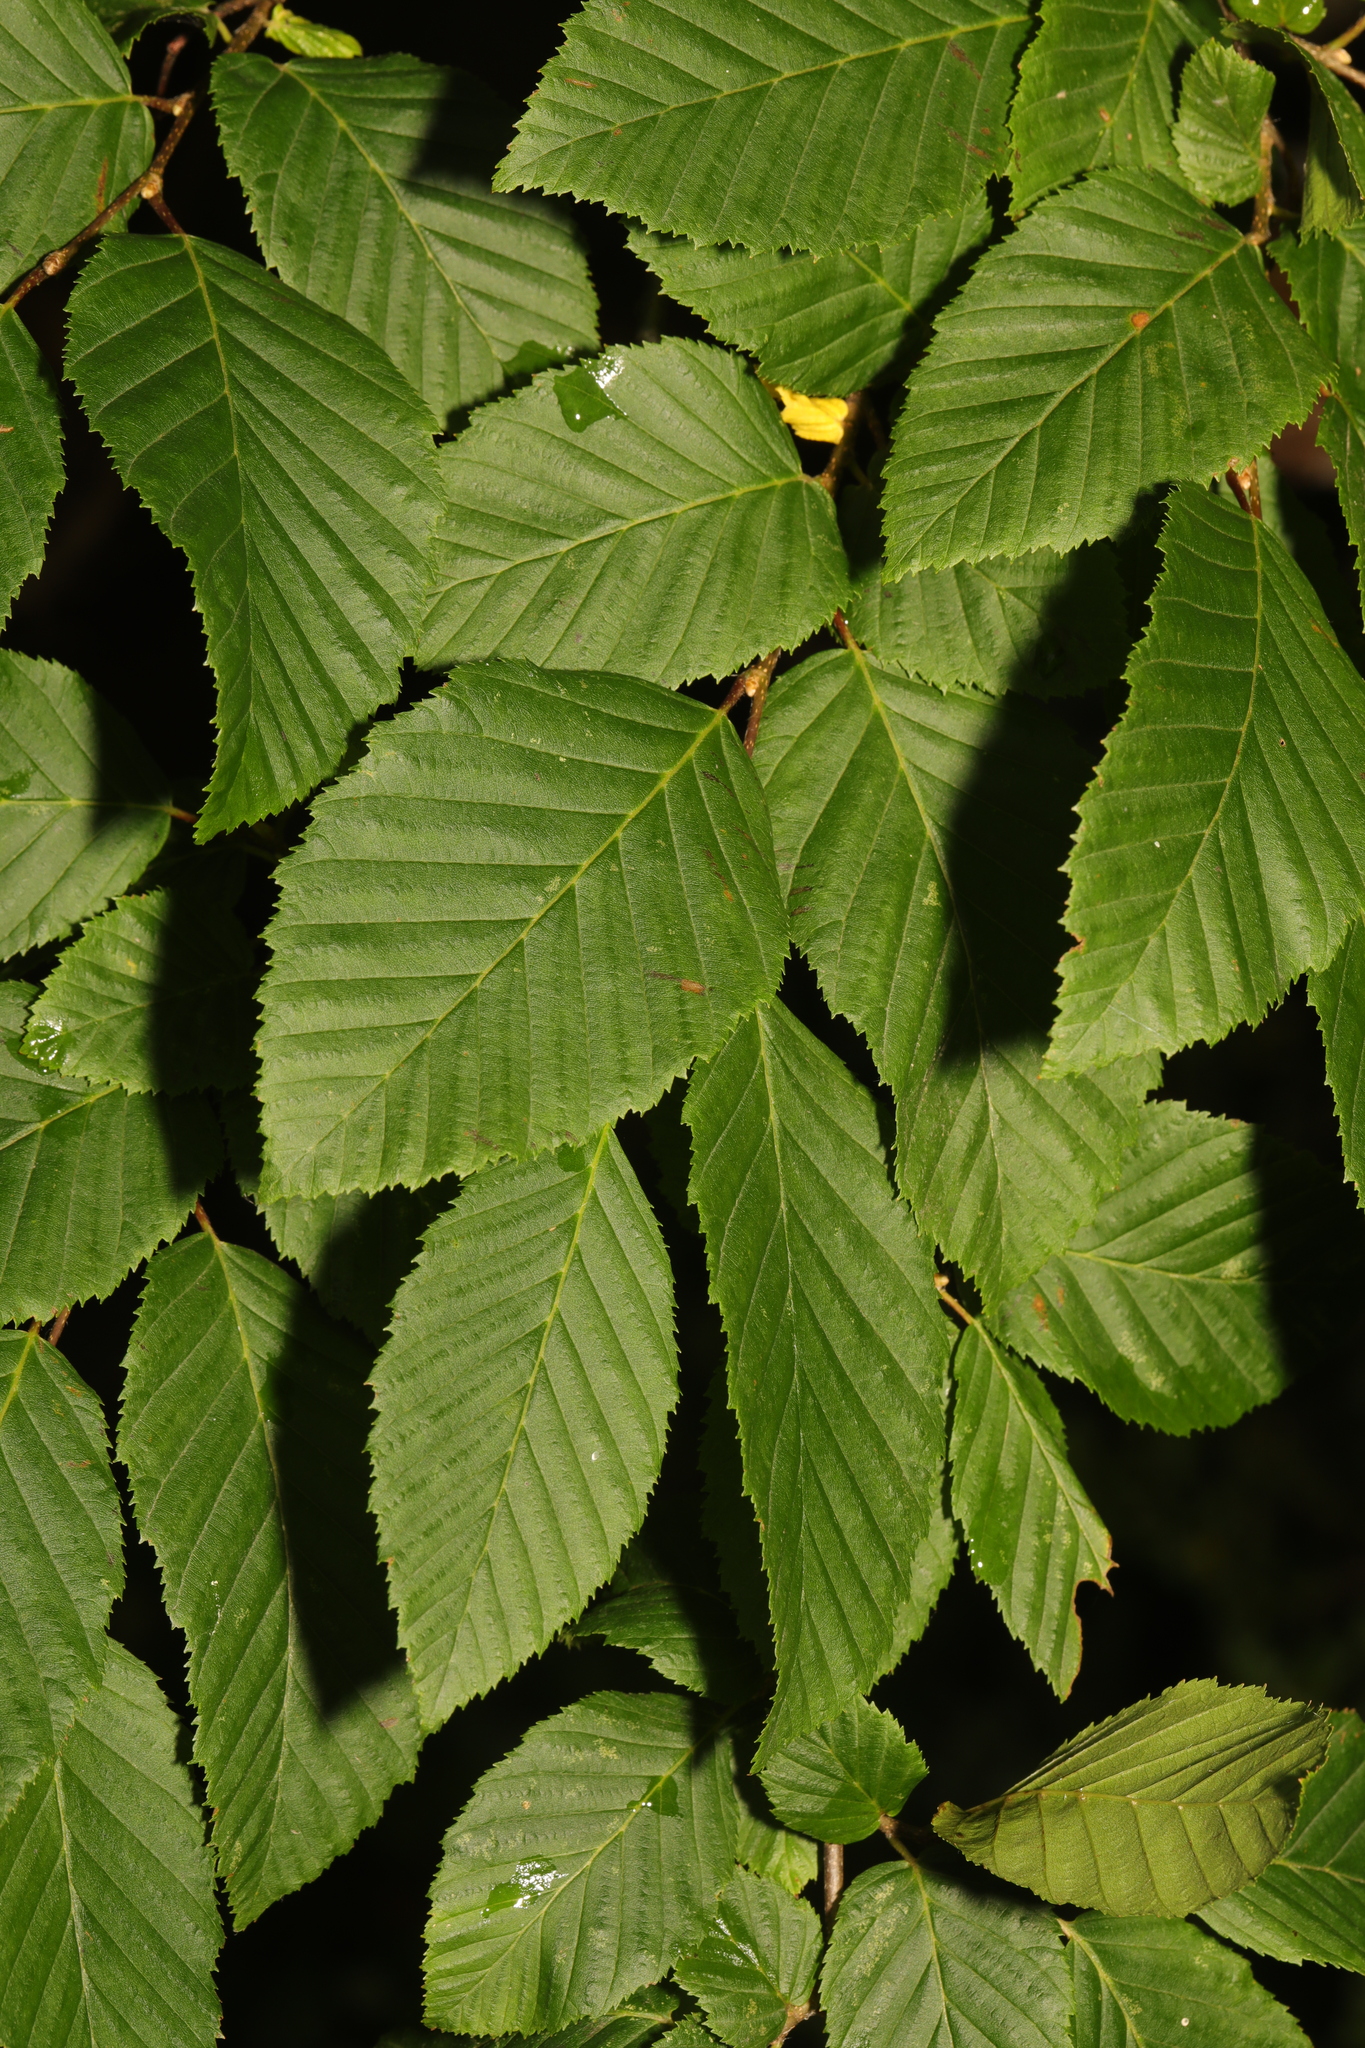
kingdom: Plantae
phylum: Tracheophyta
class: Magnoliopsida
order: Rosales
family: Ulmaceae
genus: Ulmus
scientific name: Ulmus glabra
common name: Wych elm
